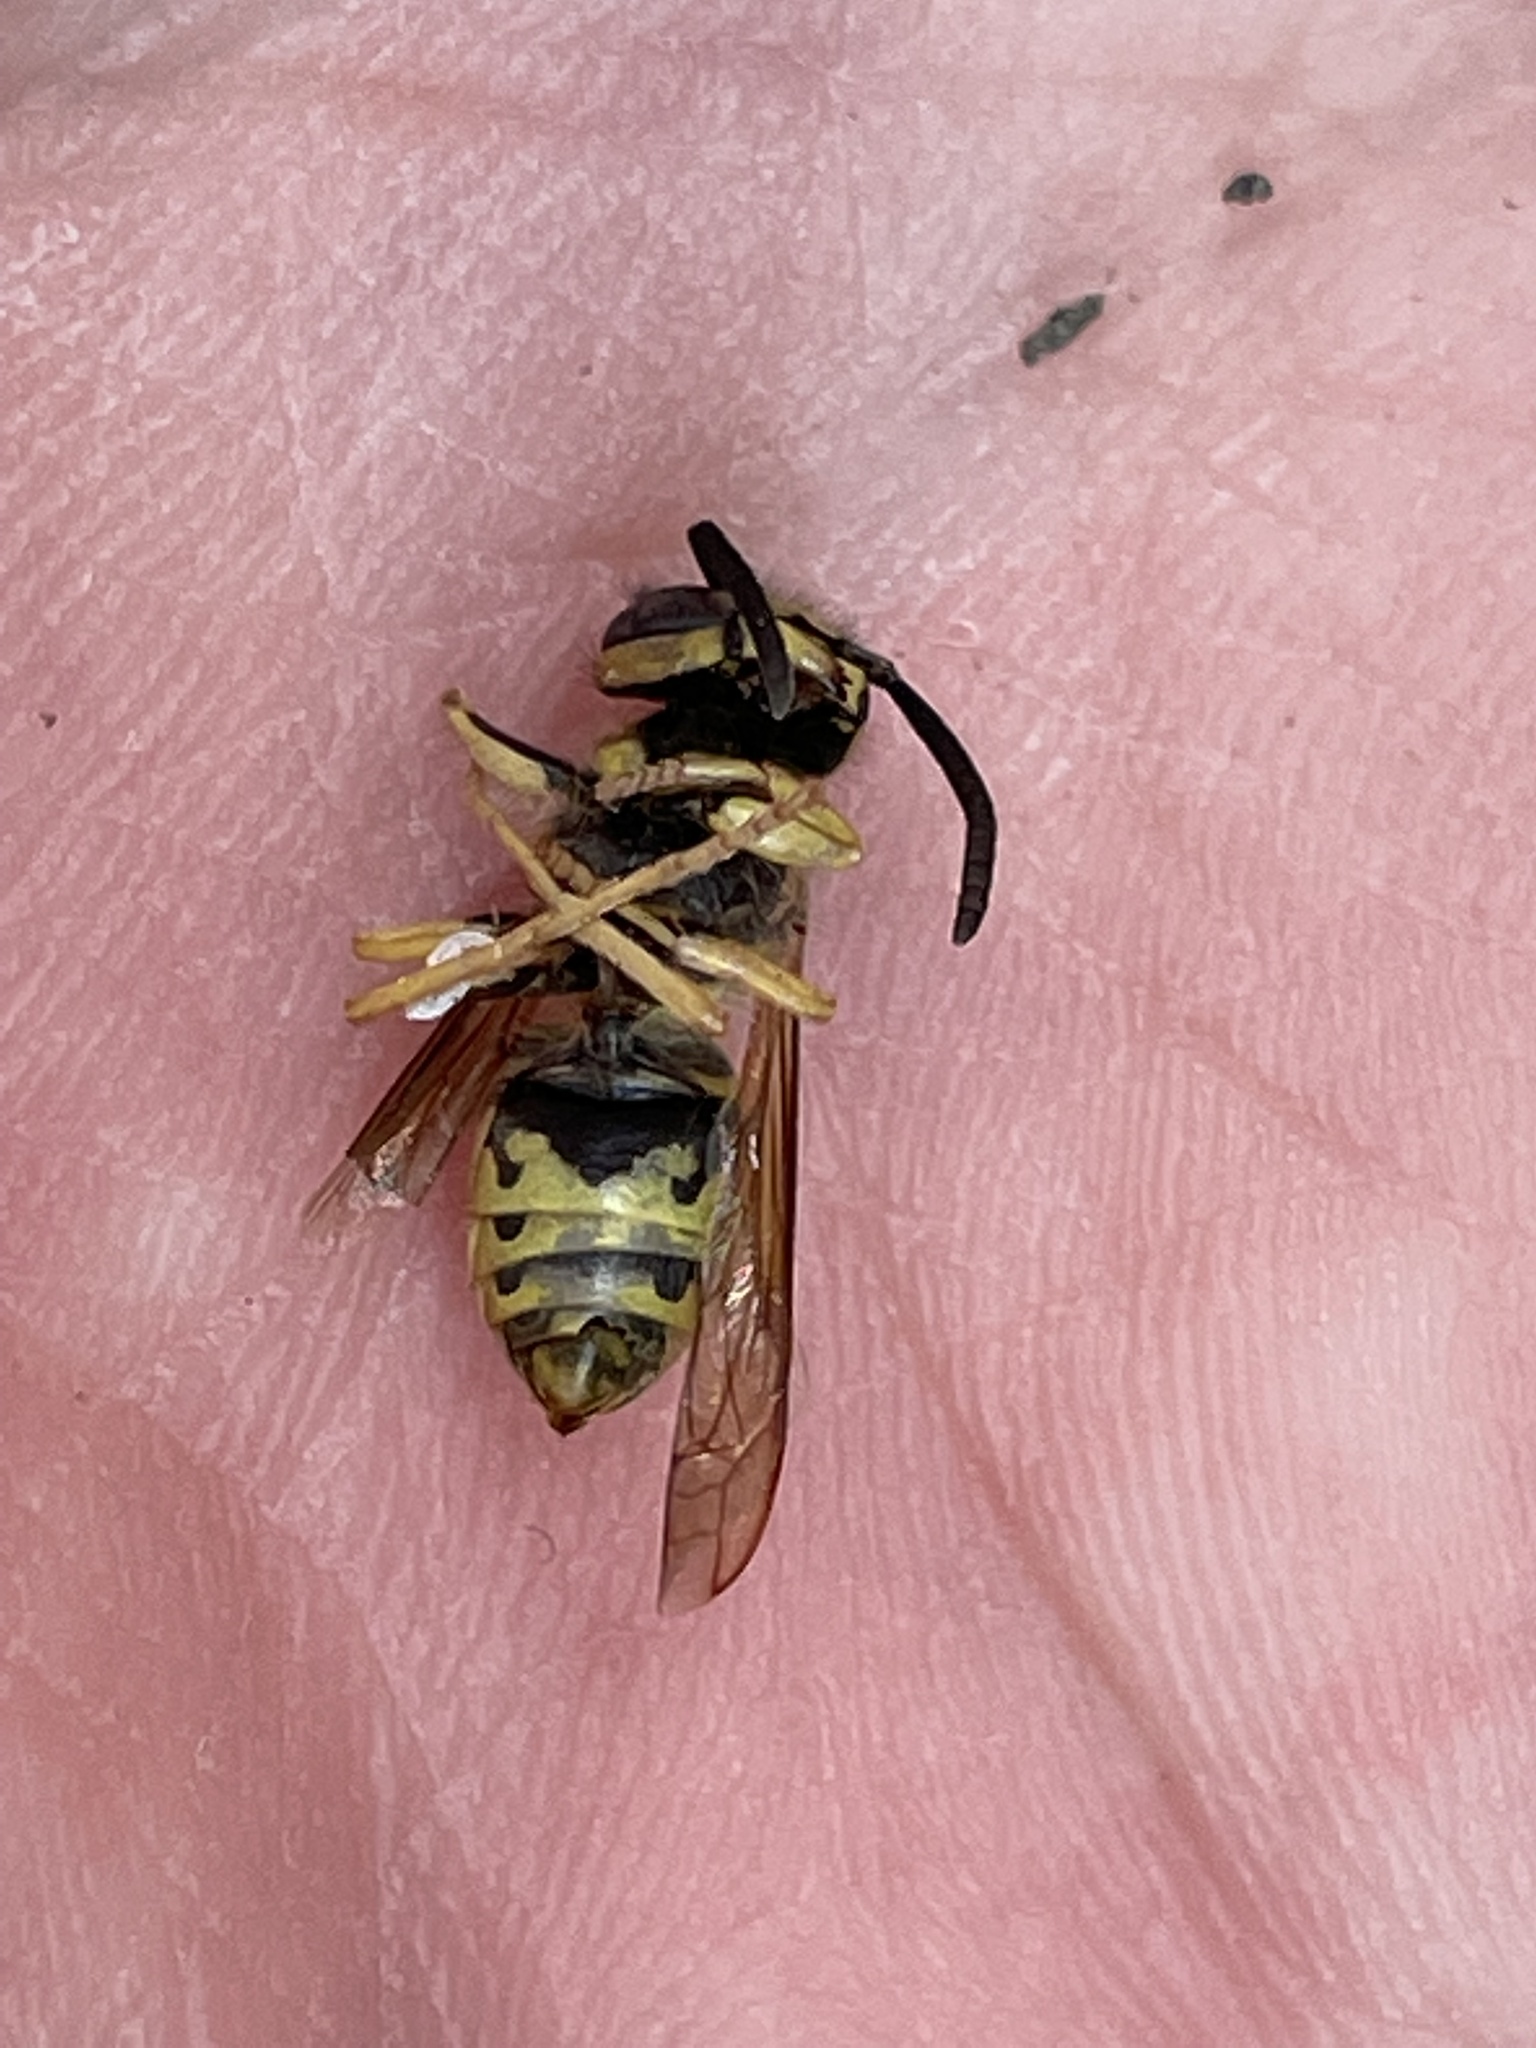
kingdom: Animalia
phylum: Arthropoda
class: Insecta
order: Hymenoptera
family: Vespidae
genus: Vespula
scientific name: Vespula flavopilosa
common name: Downy yellowjacket
